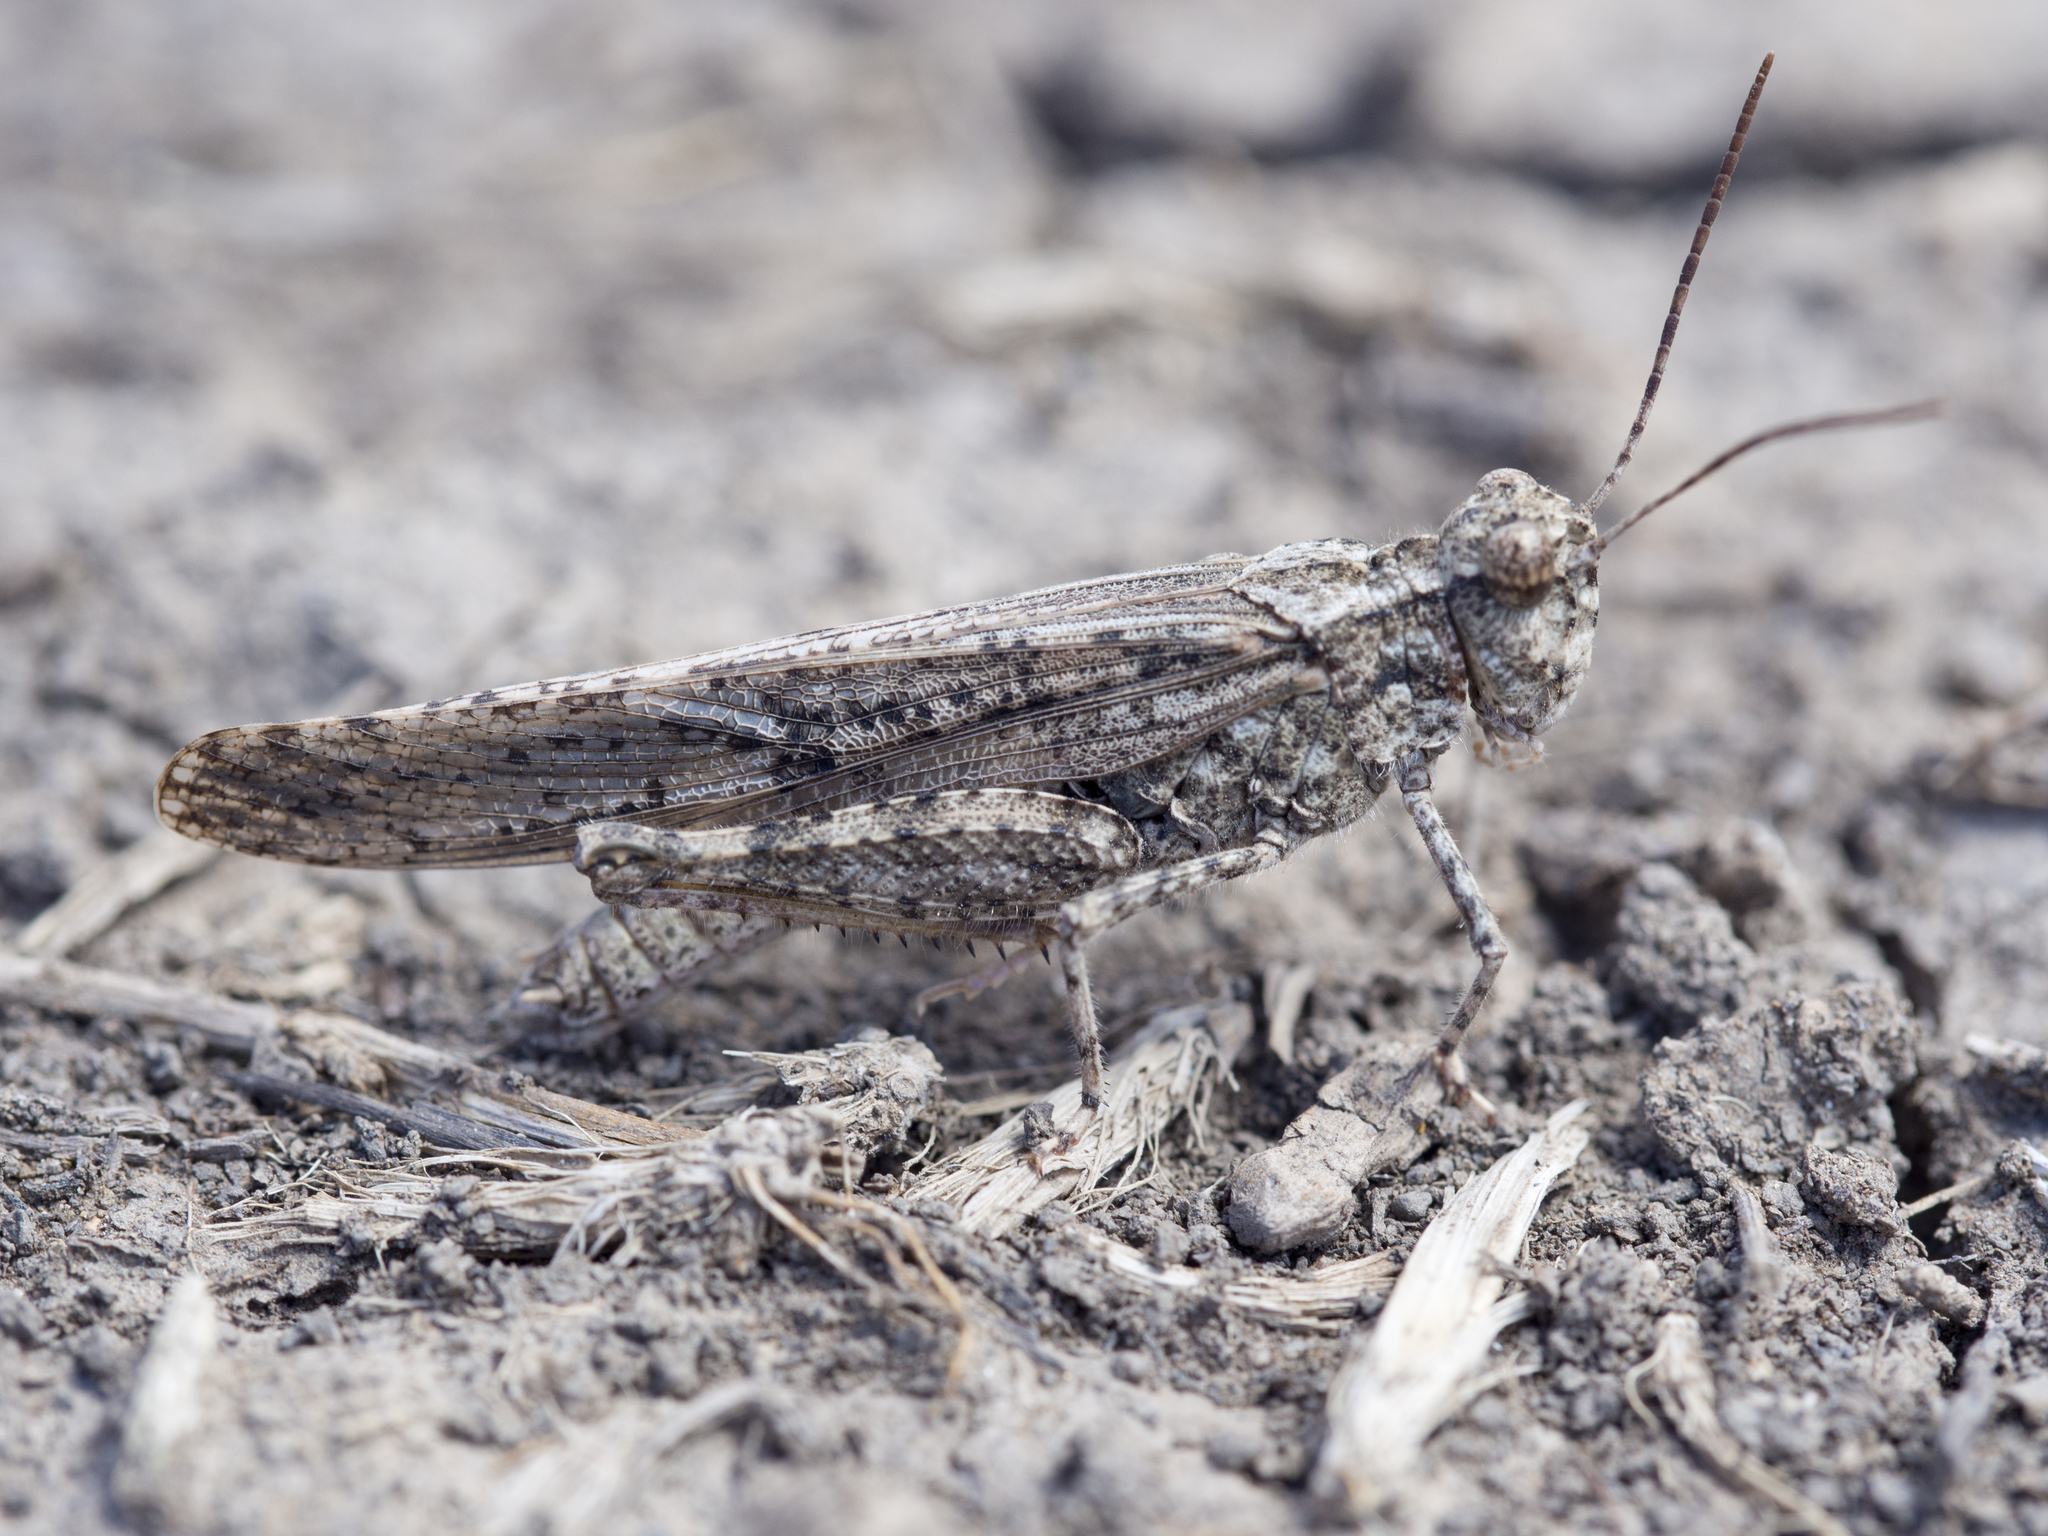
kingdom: Animalia
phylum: Arthropoda
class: Insecta
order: Orthoptera
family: Acrididae
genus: Trimerotropis
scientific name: Trimerotropis gracilis
